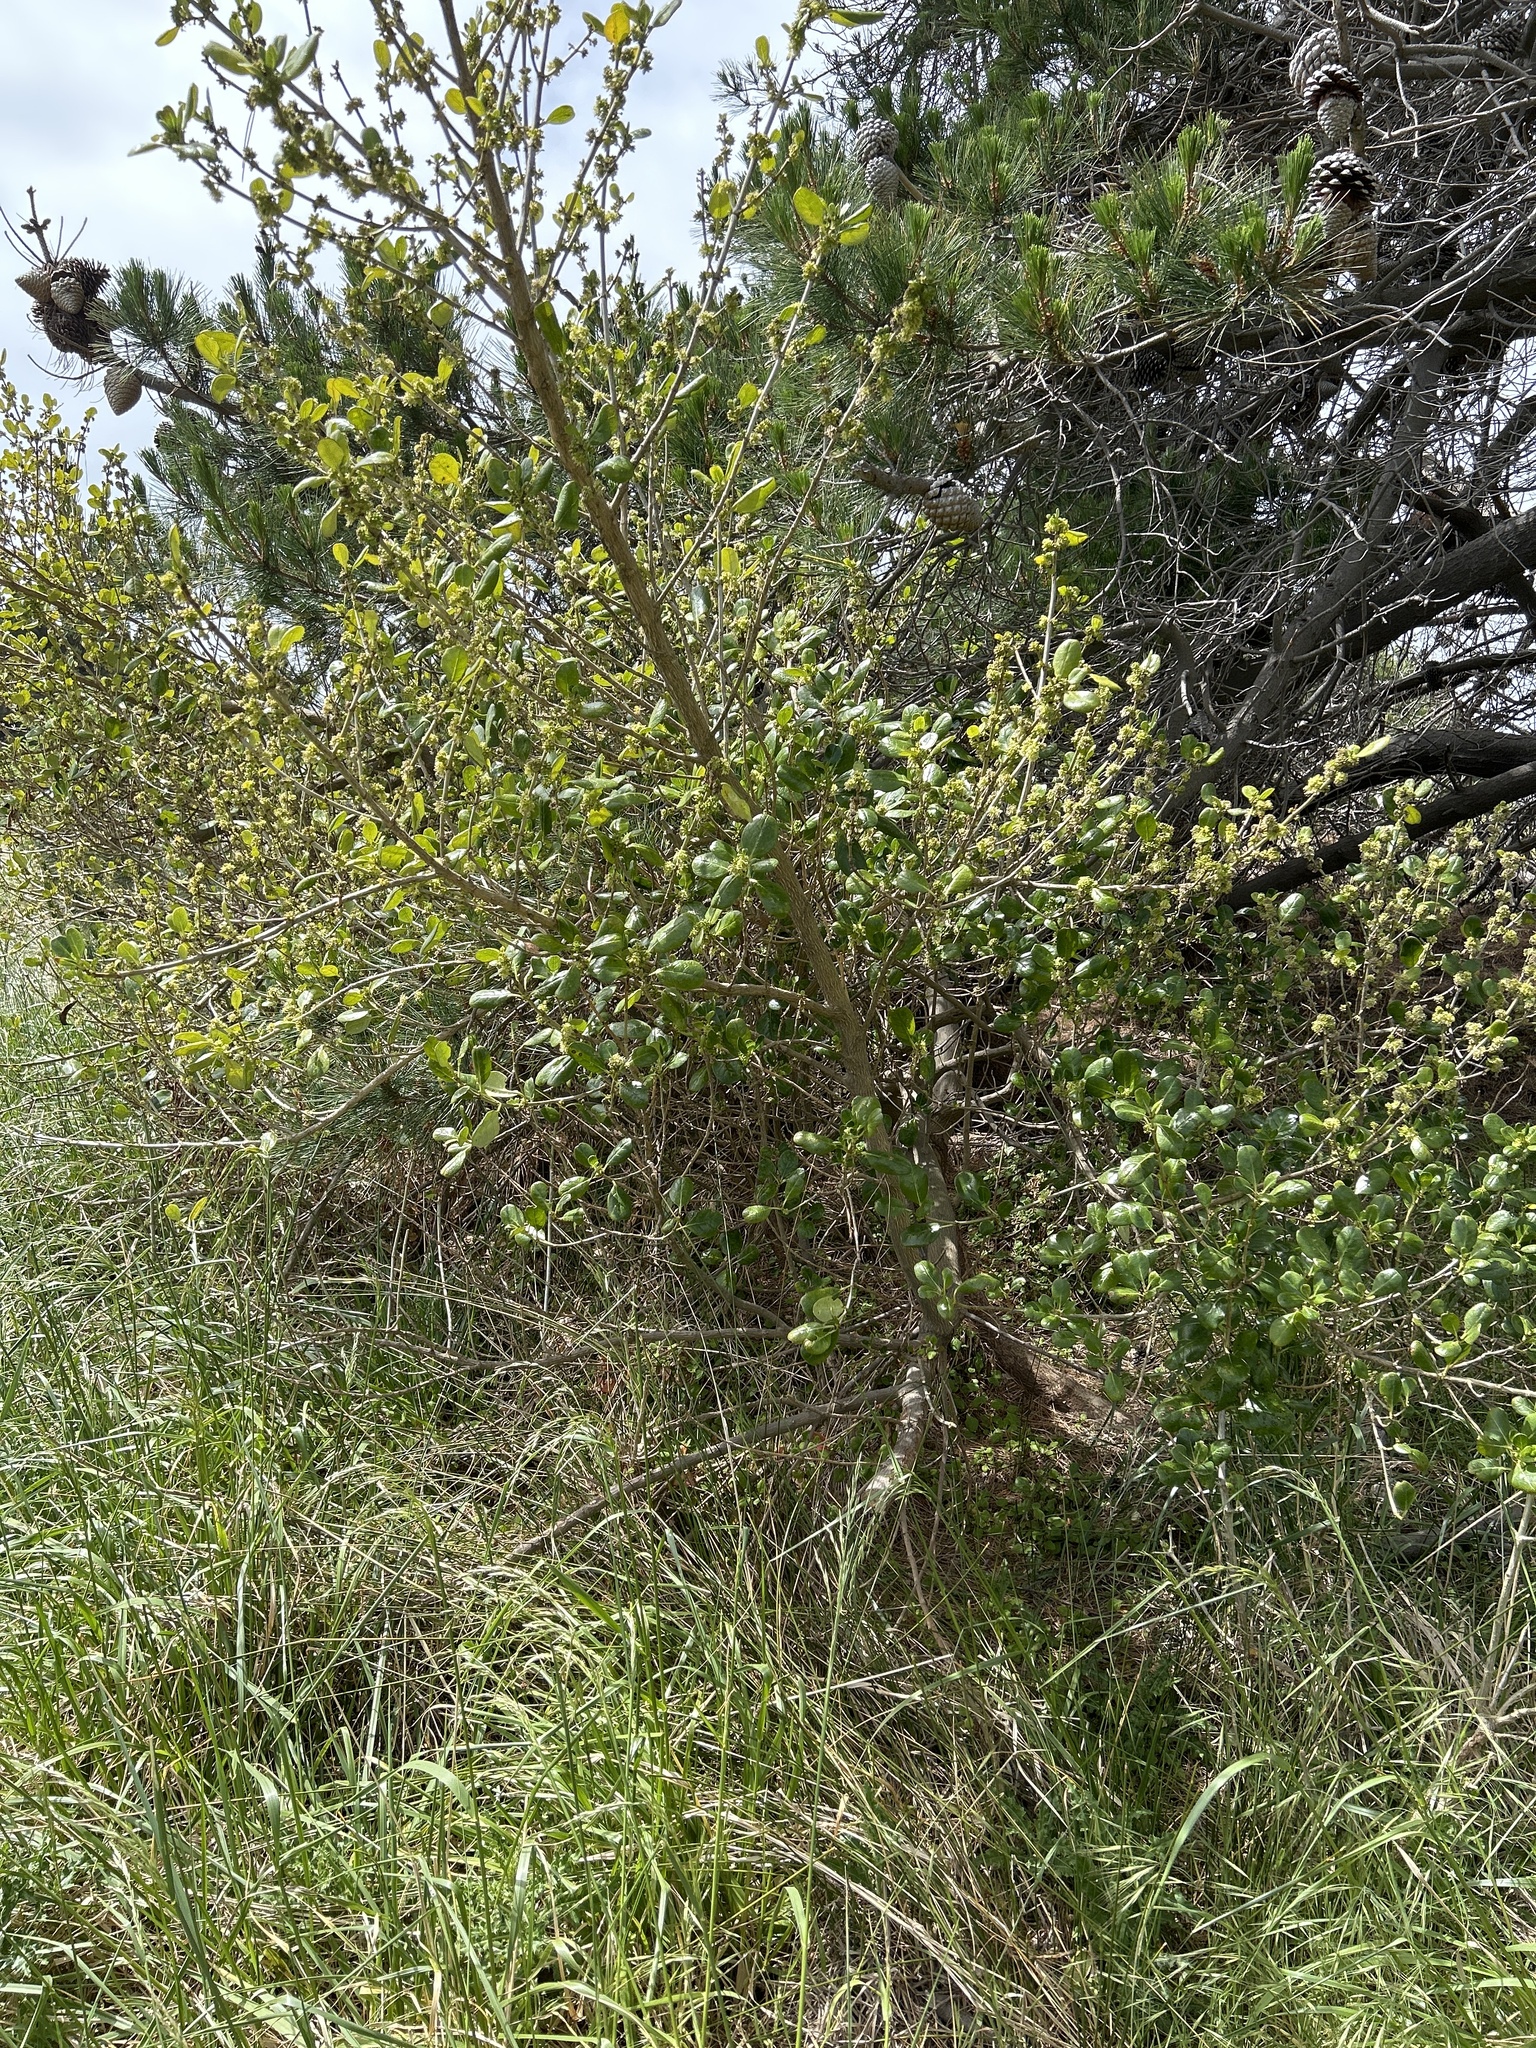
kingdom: Plantae
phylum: Tracheophyta
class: Magnoliopsida
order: Gentianales
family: Rubiaceae
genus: Coprosma
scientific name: Coprosma repens
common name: Tree bedstraw
